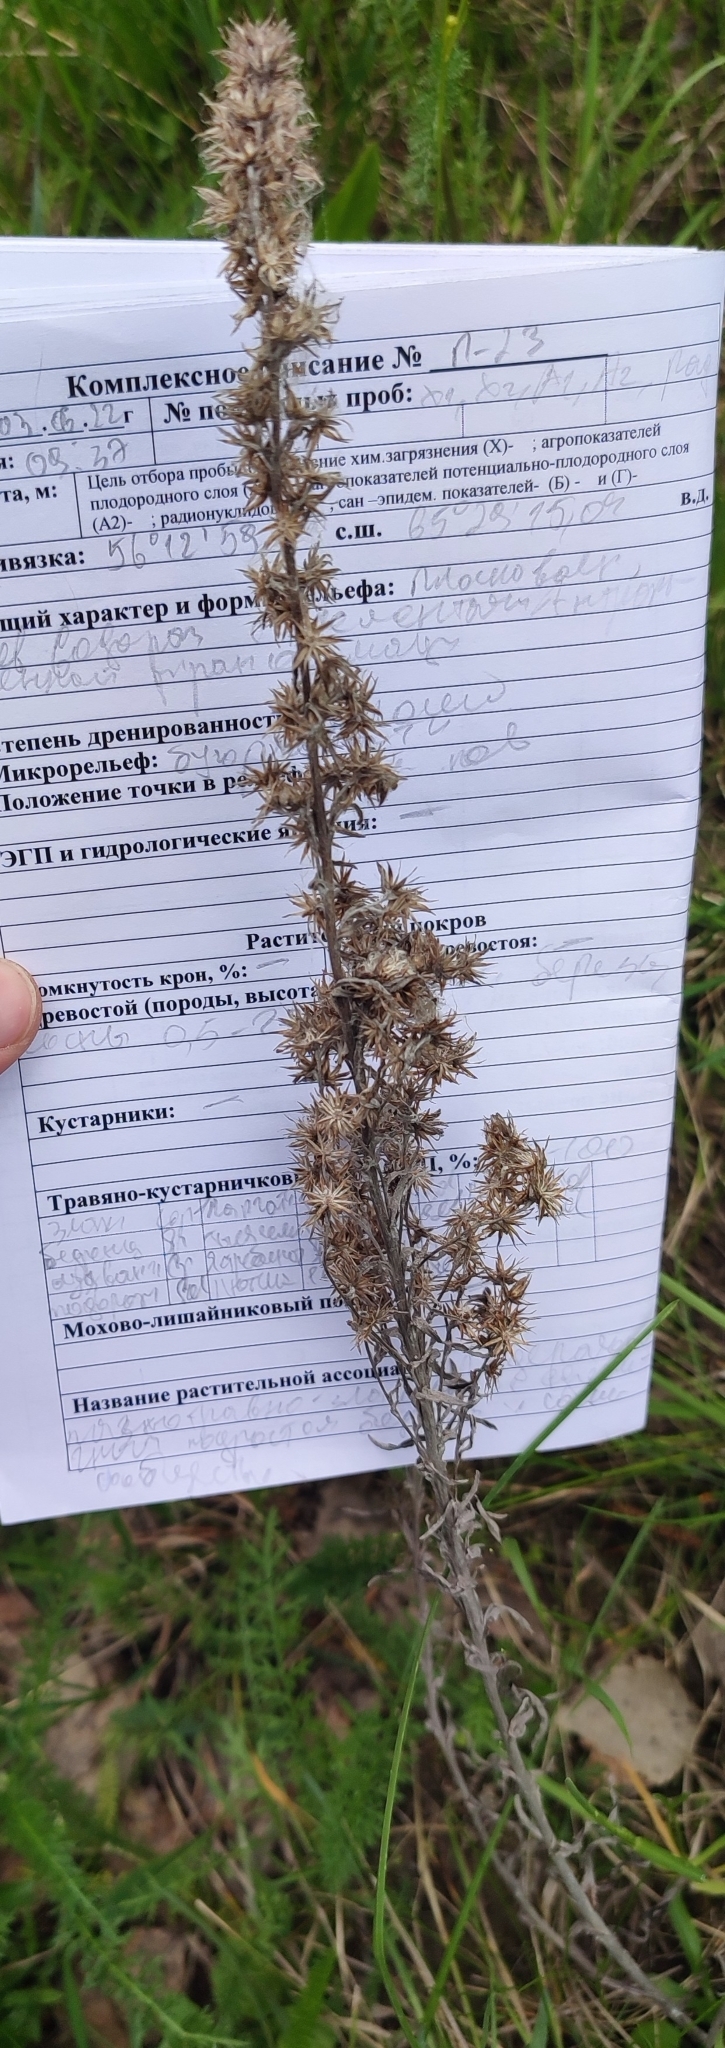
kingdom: Plantae
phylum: Tracheophyta
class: Magnoliopsida
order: Asterales
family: Asteraceae
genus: Solidago
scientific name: Solidago virgaurea
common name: Goldenrod
